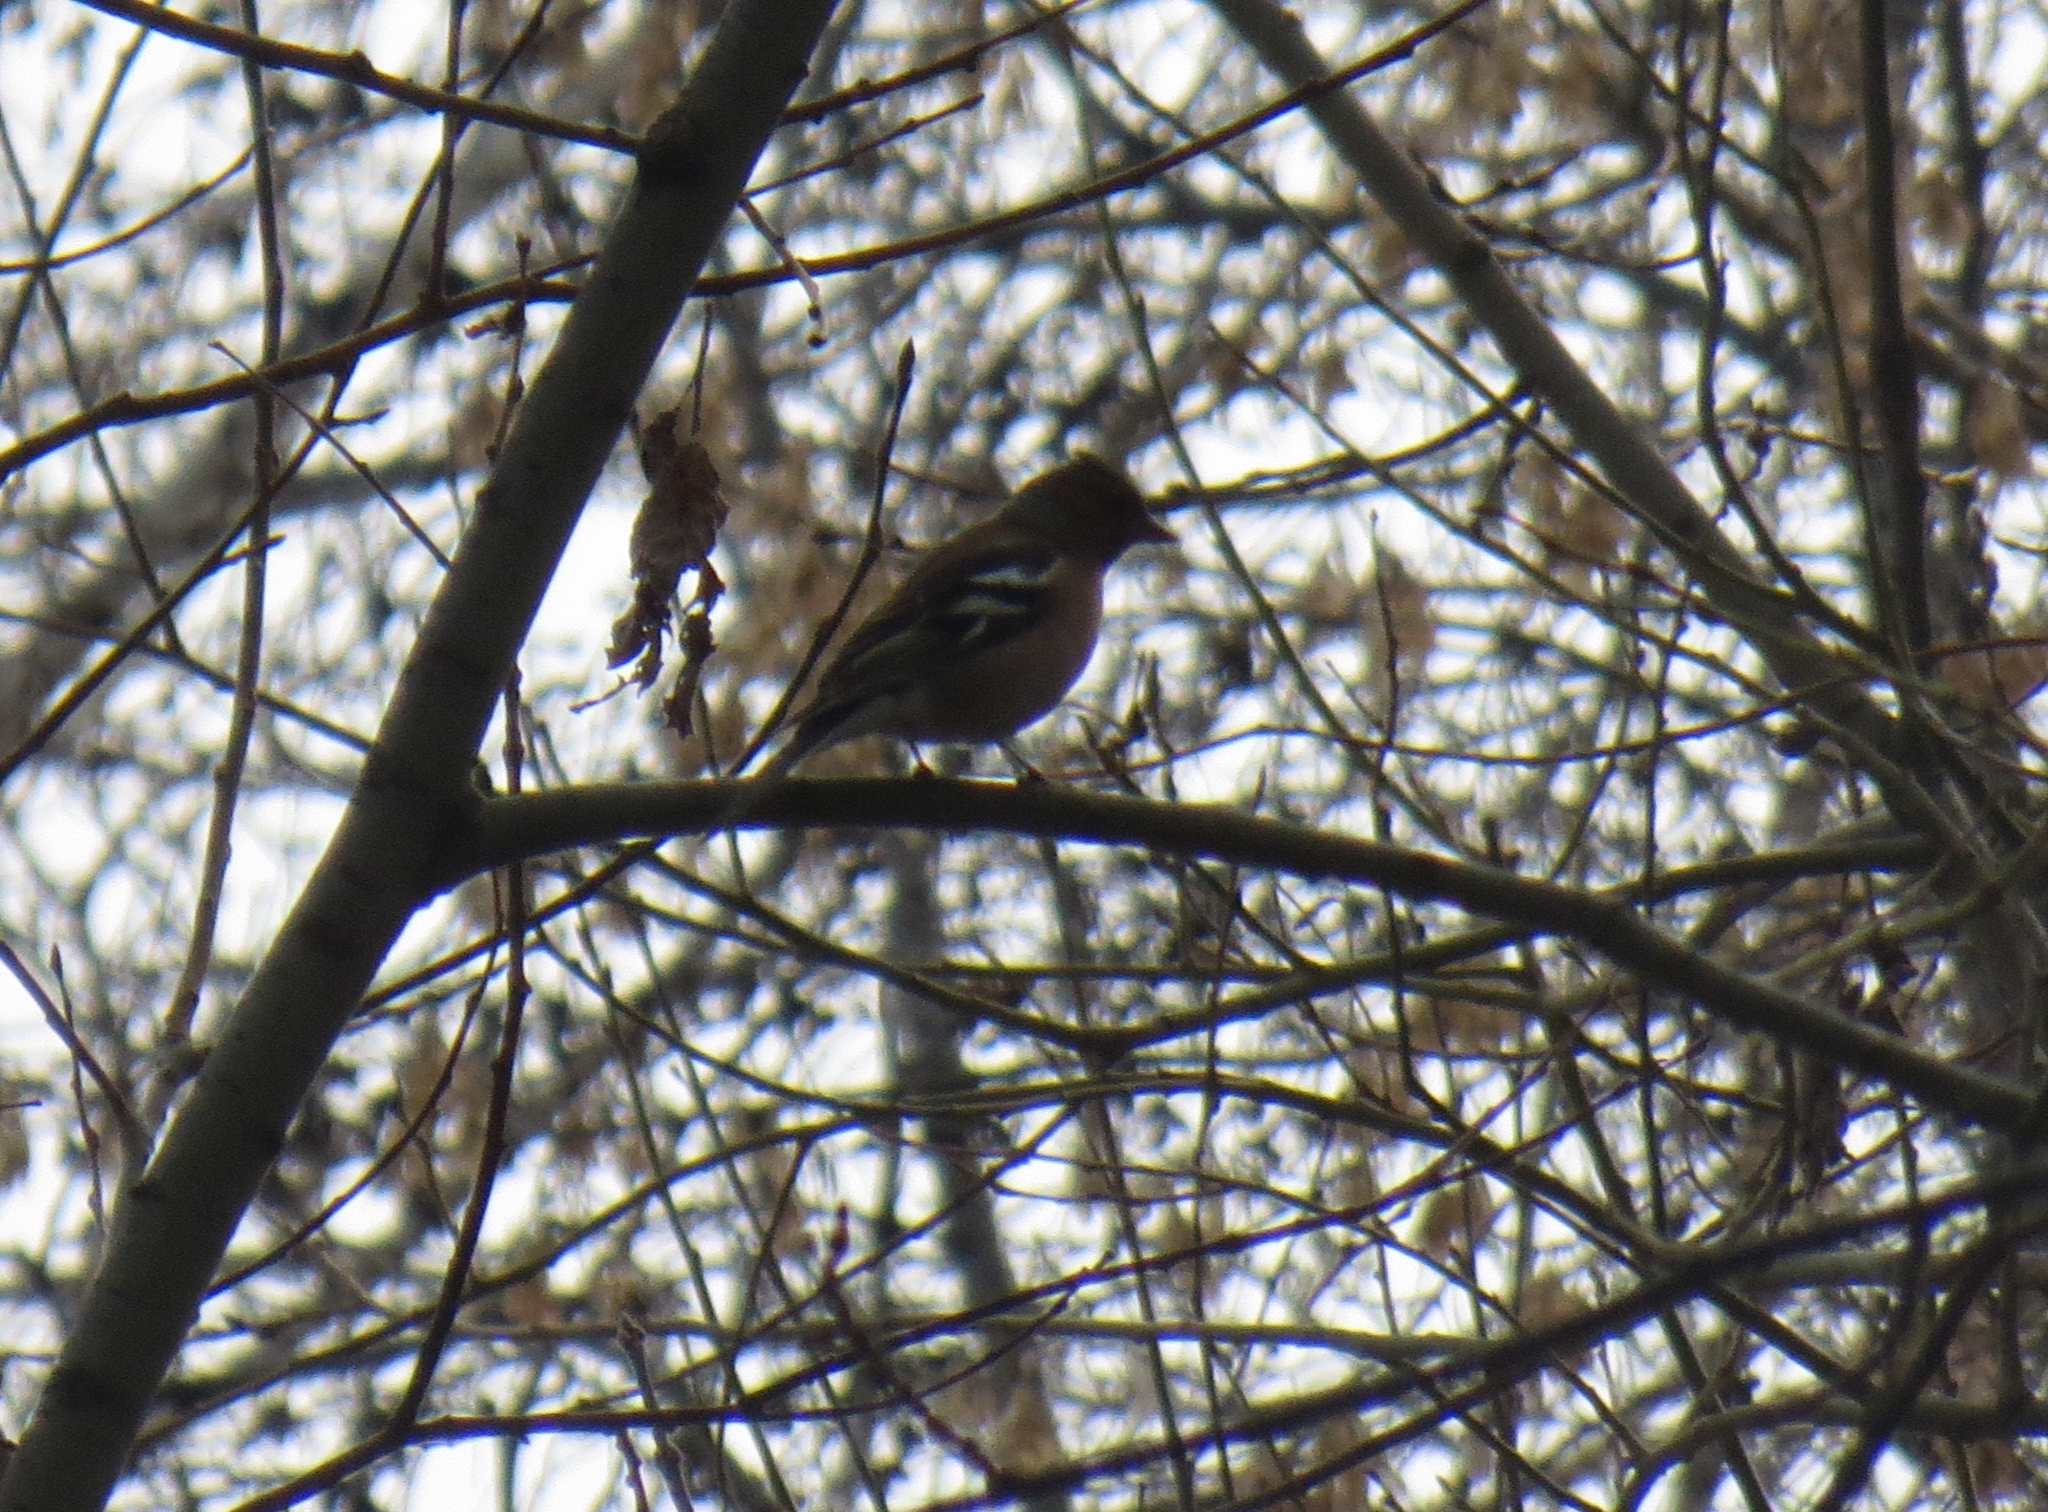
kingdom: Animalia
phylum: Chordata
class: Aves
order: Passeriformes
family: Fringillidae
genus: Fringilla
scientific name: Fringilla coelebs
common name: Common chaffinch
